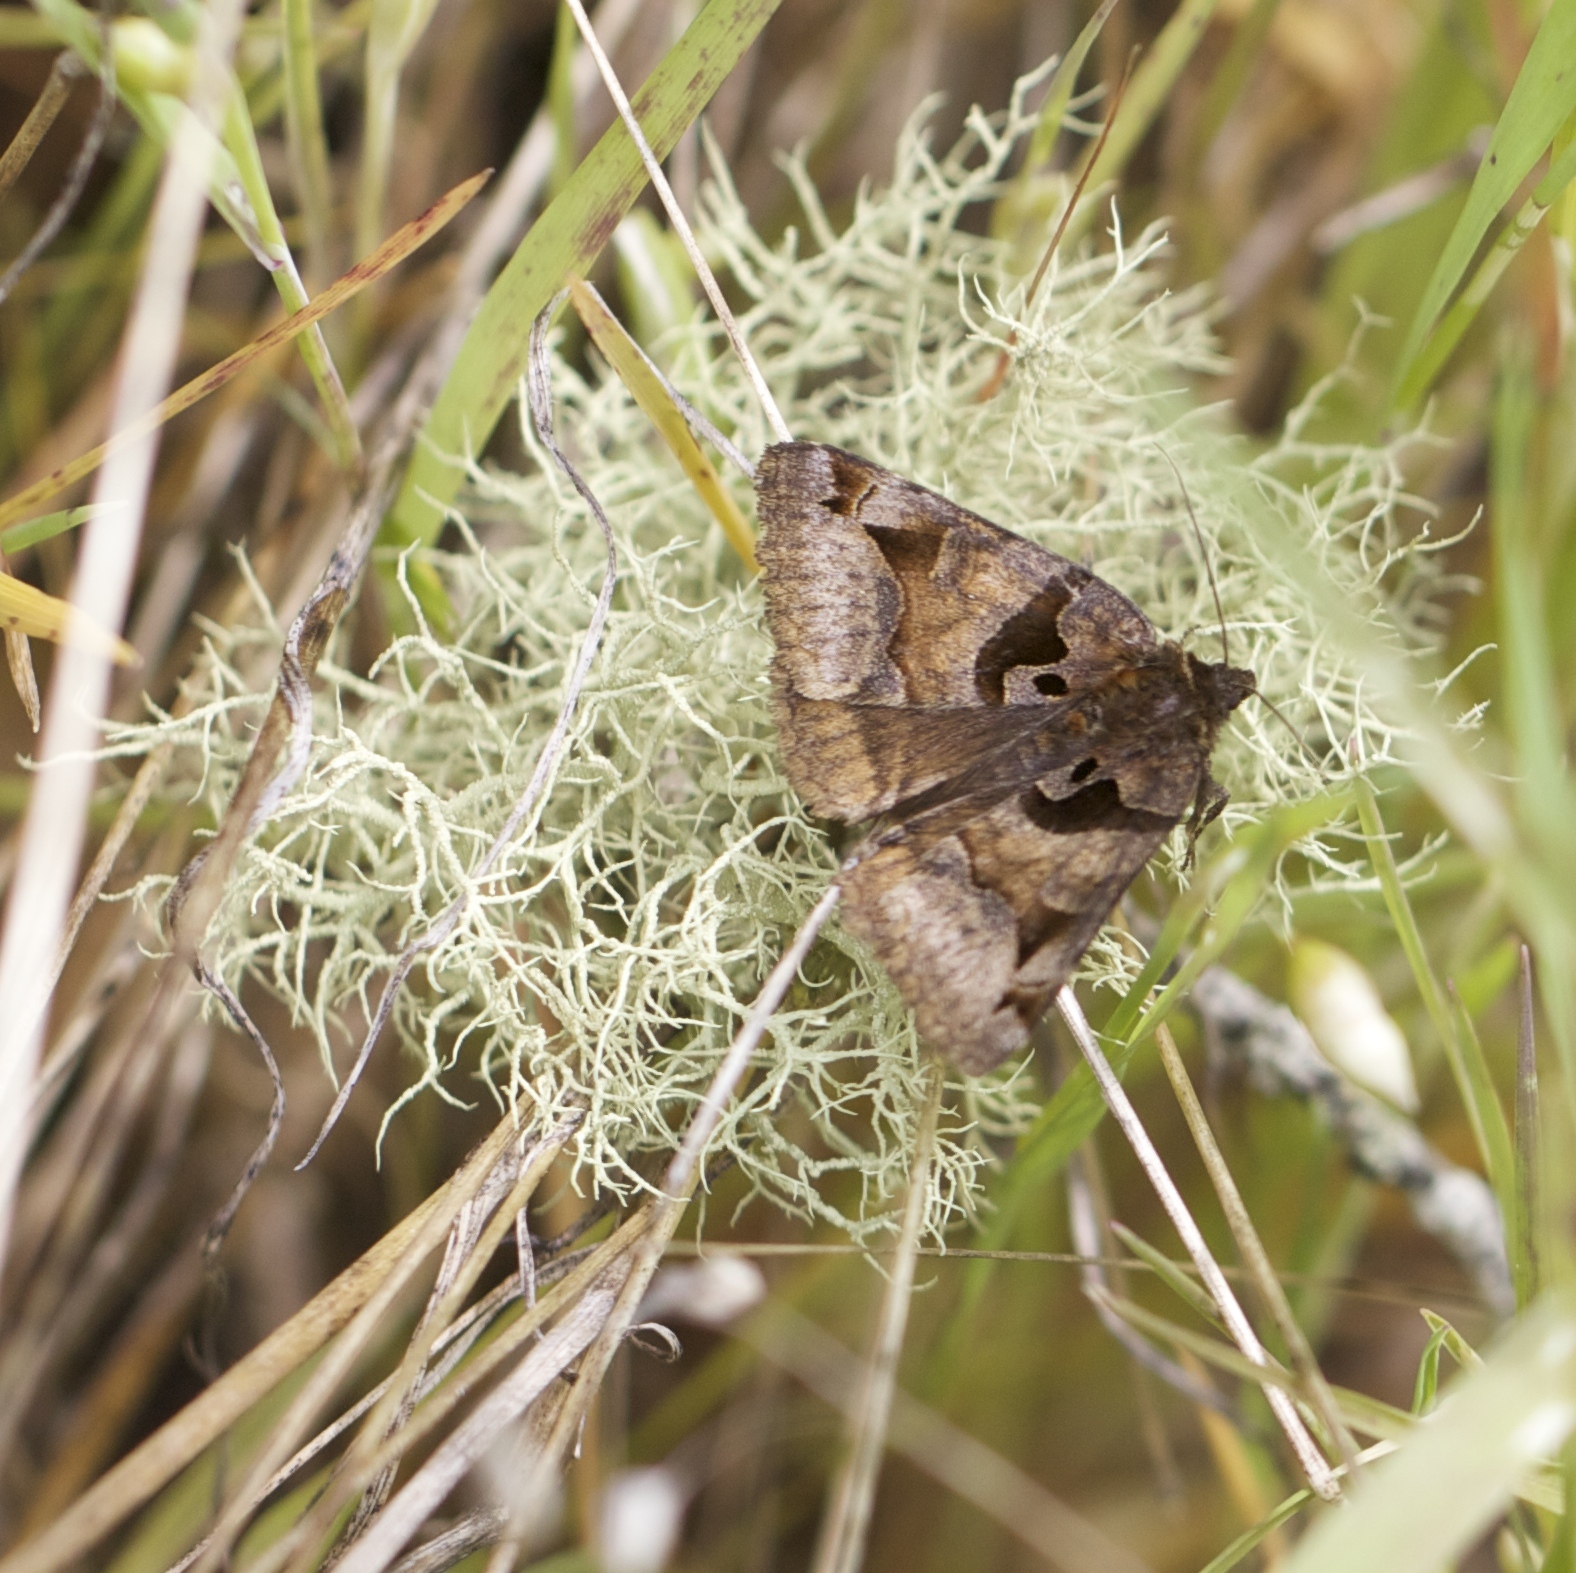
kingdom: Animalia
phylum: Arthropoda
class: Insecta
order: Lepidoptera
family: Erebidae
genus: Euclidia
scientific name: Euclidia ardita
